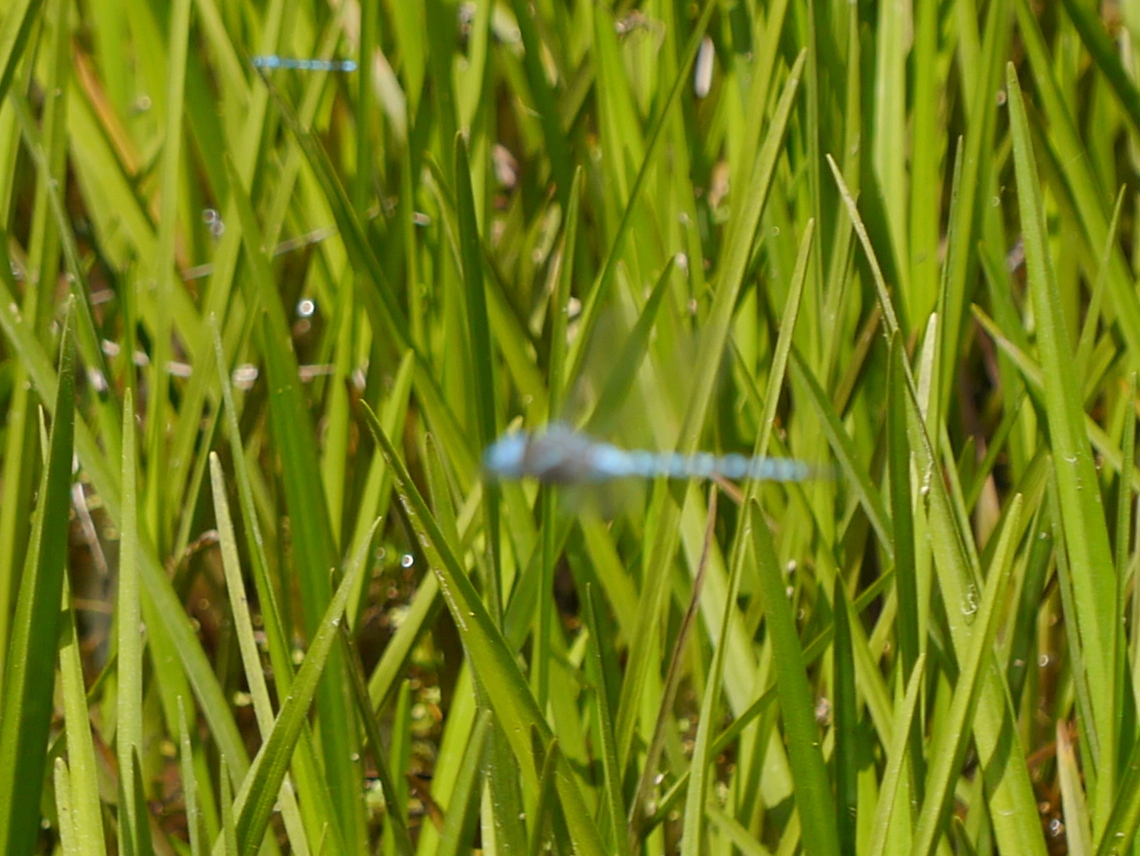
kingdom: Animalia
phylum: Arthropoda
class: Insecta
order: Odonata
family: Aeshnidae
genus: Rhionaeschna
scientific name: Rhionaeschna mutata
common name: Spatterdock darner
